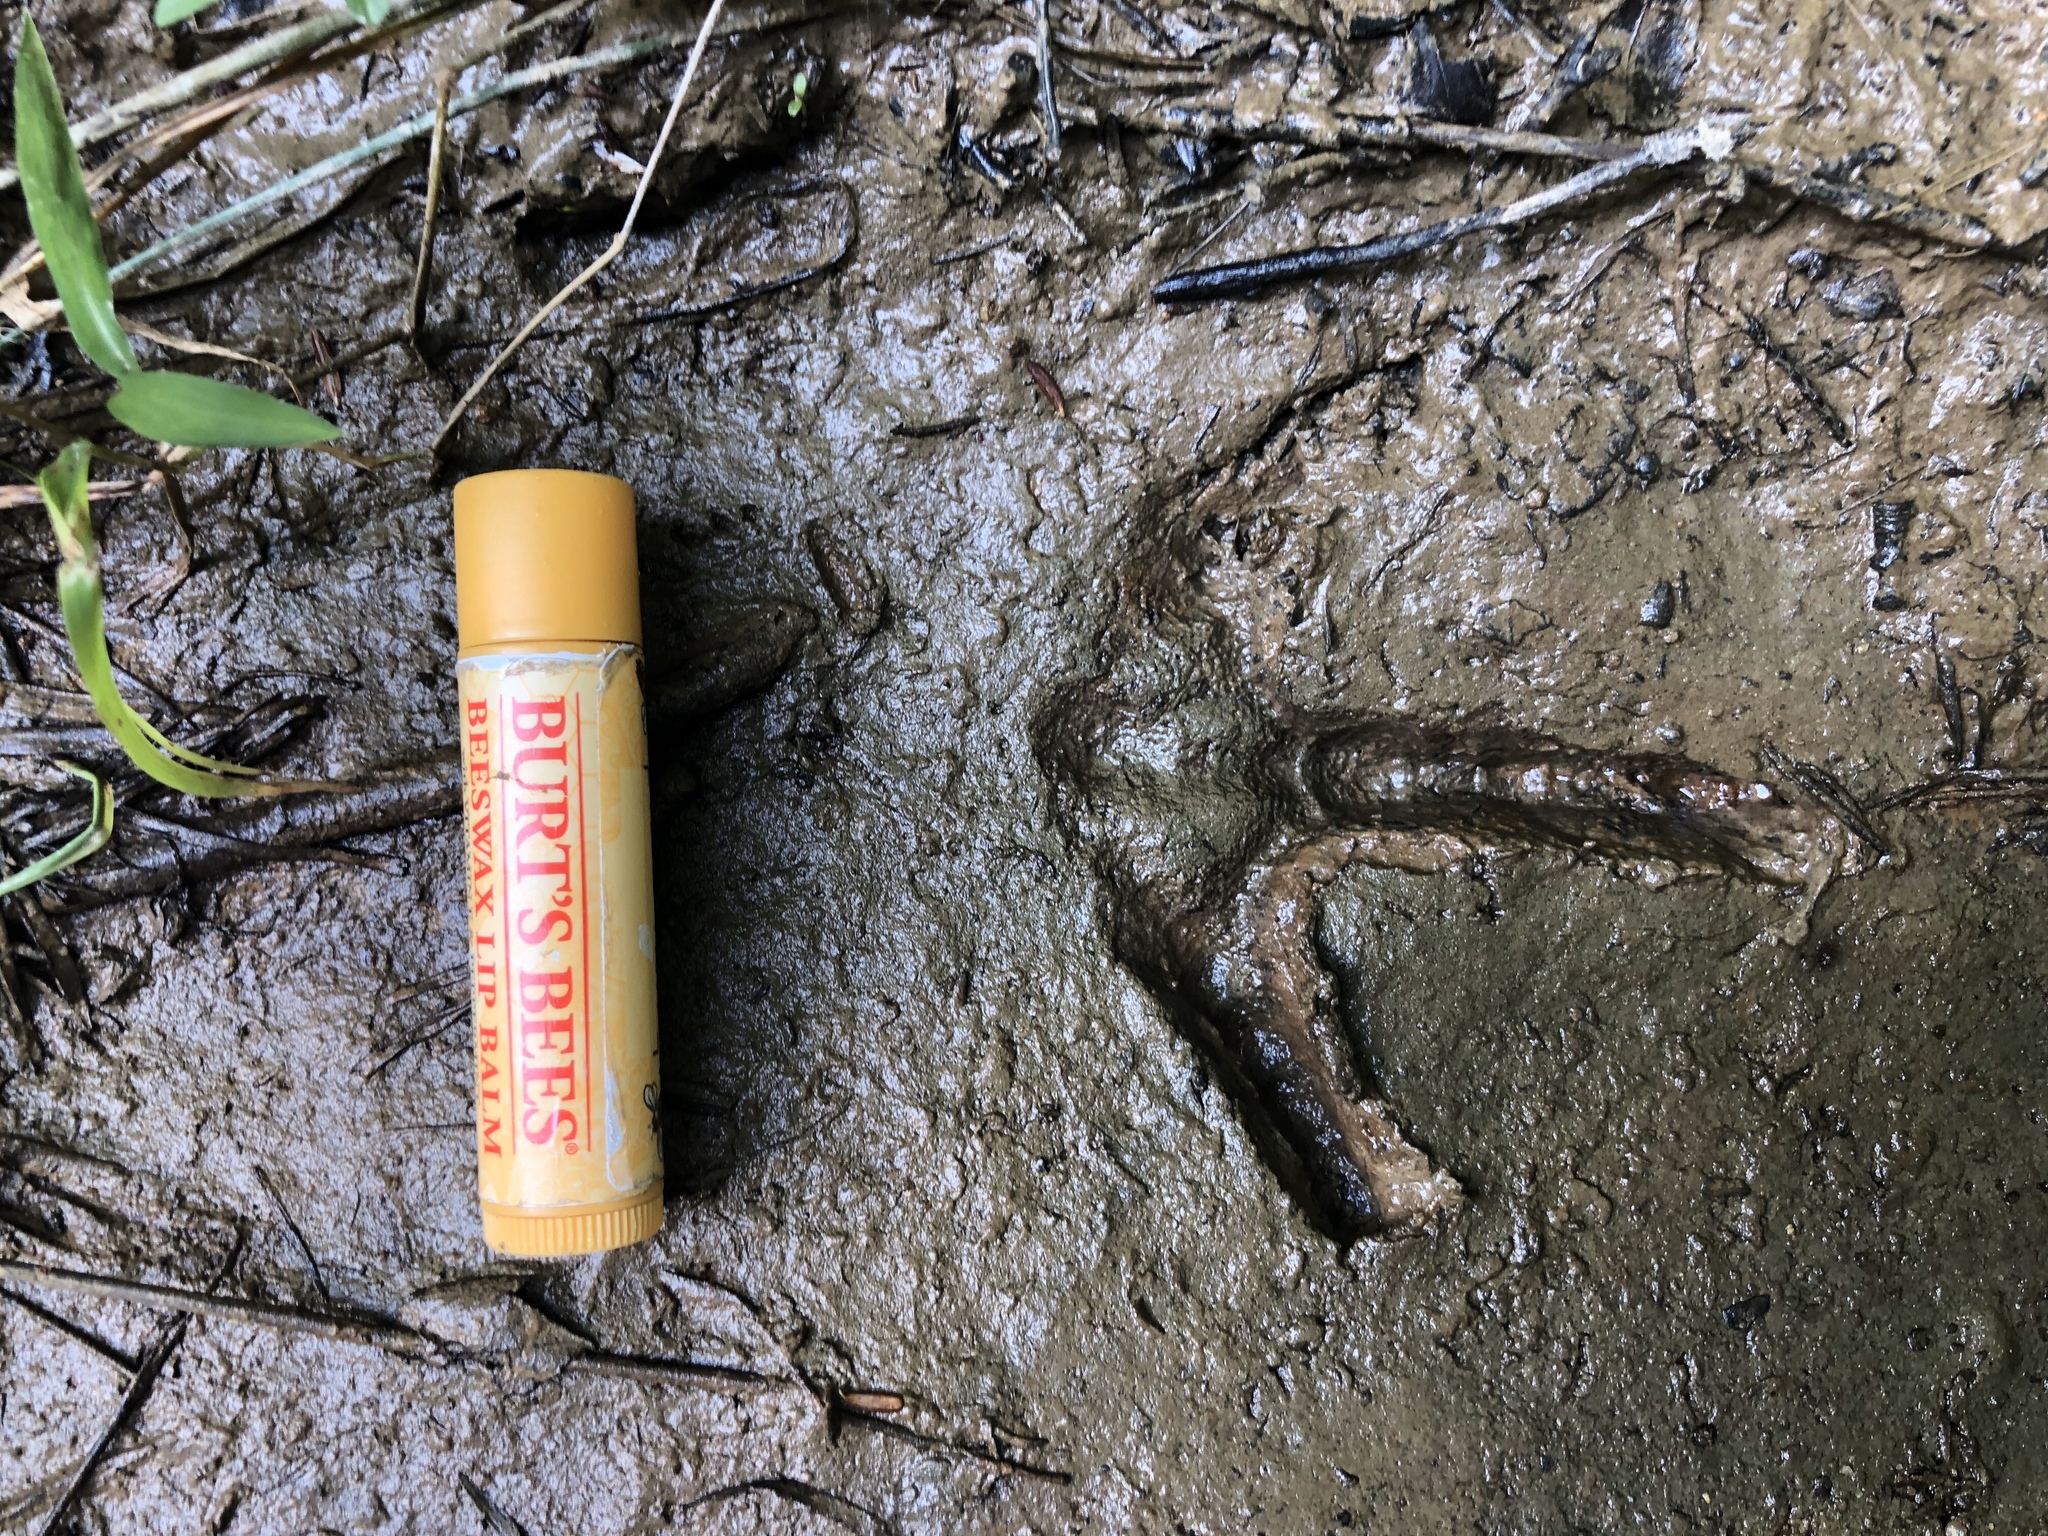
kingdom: Animalia
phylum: Chordata
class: Aves
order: Galliformes
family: Phasianidae
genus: Meleagris
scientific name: Meleagris gallopavo
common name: Wild turkey
